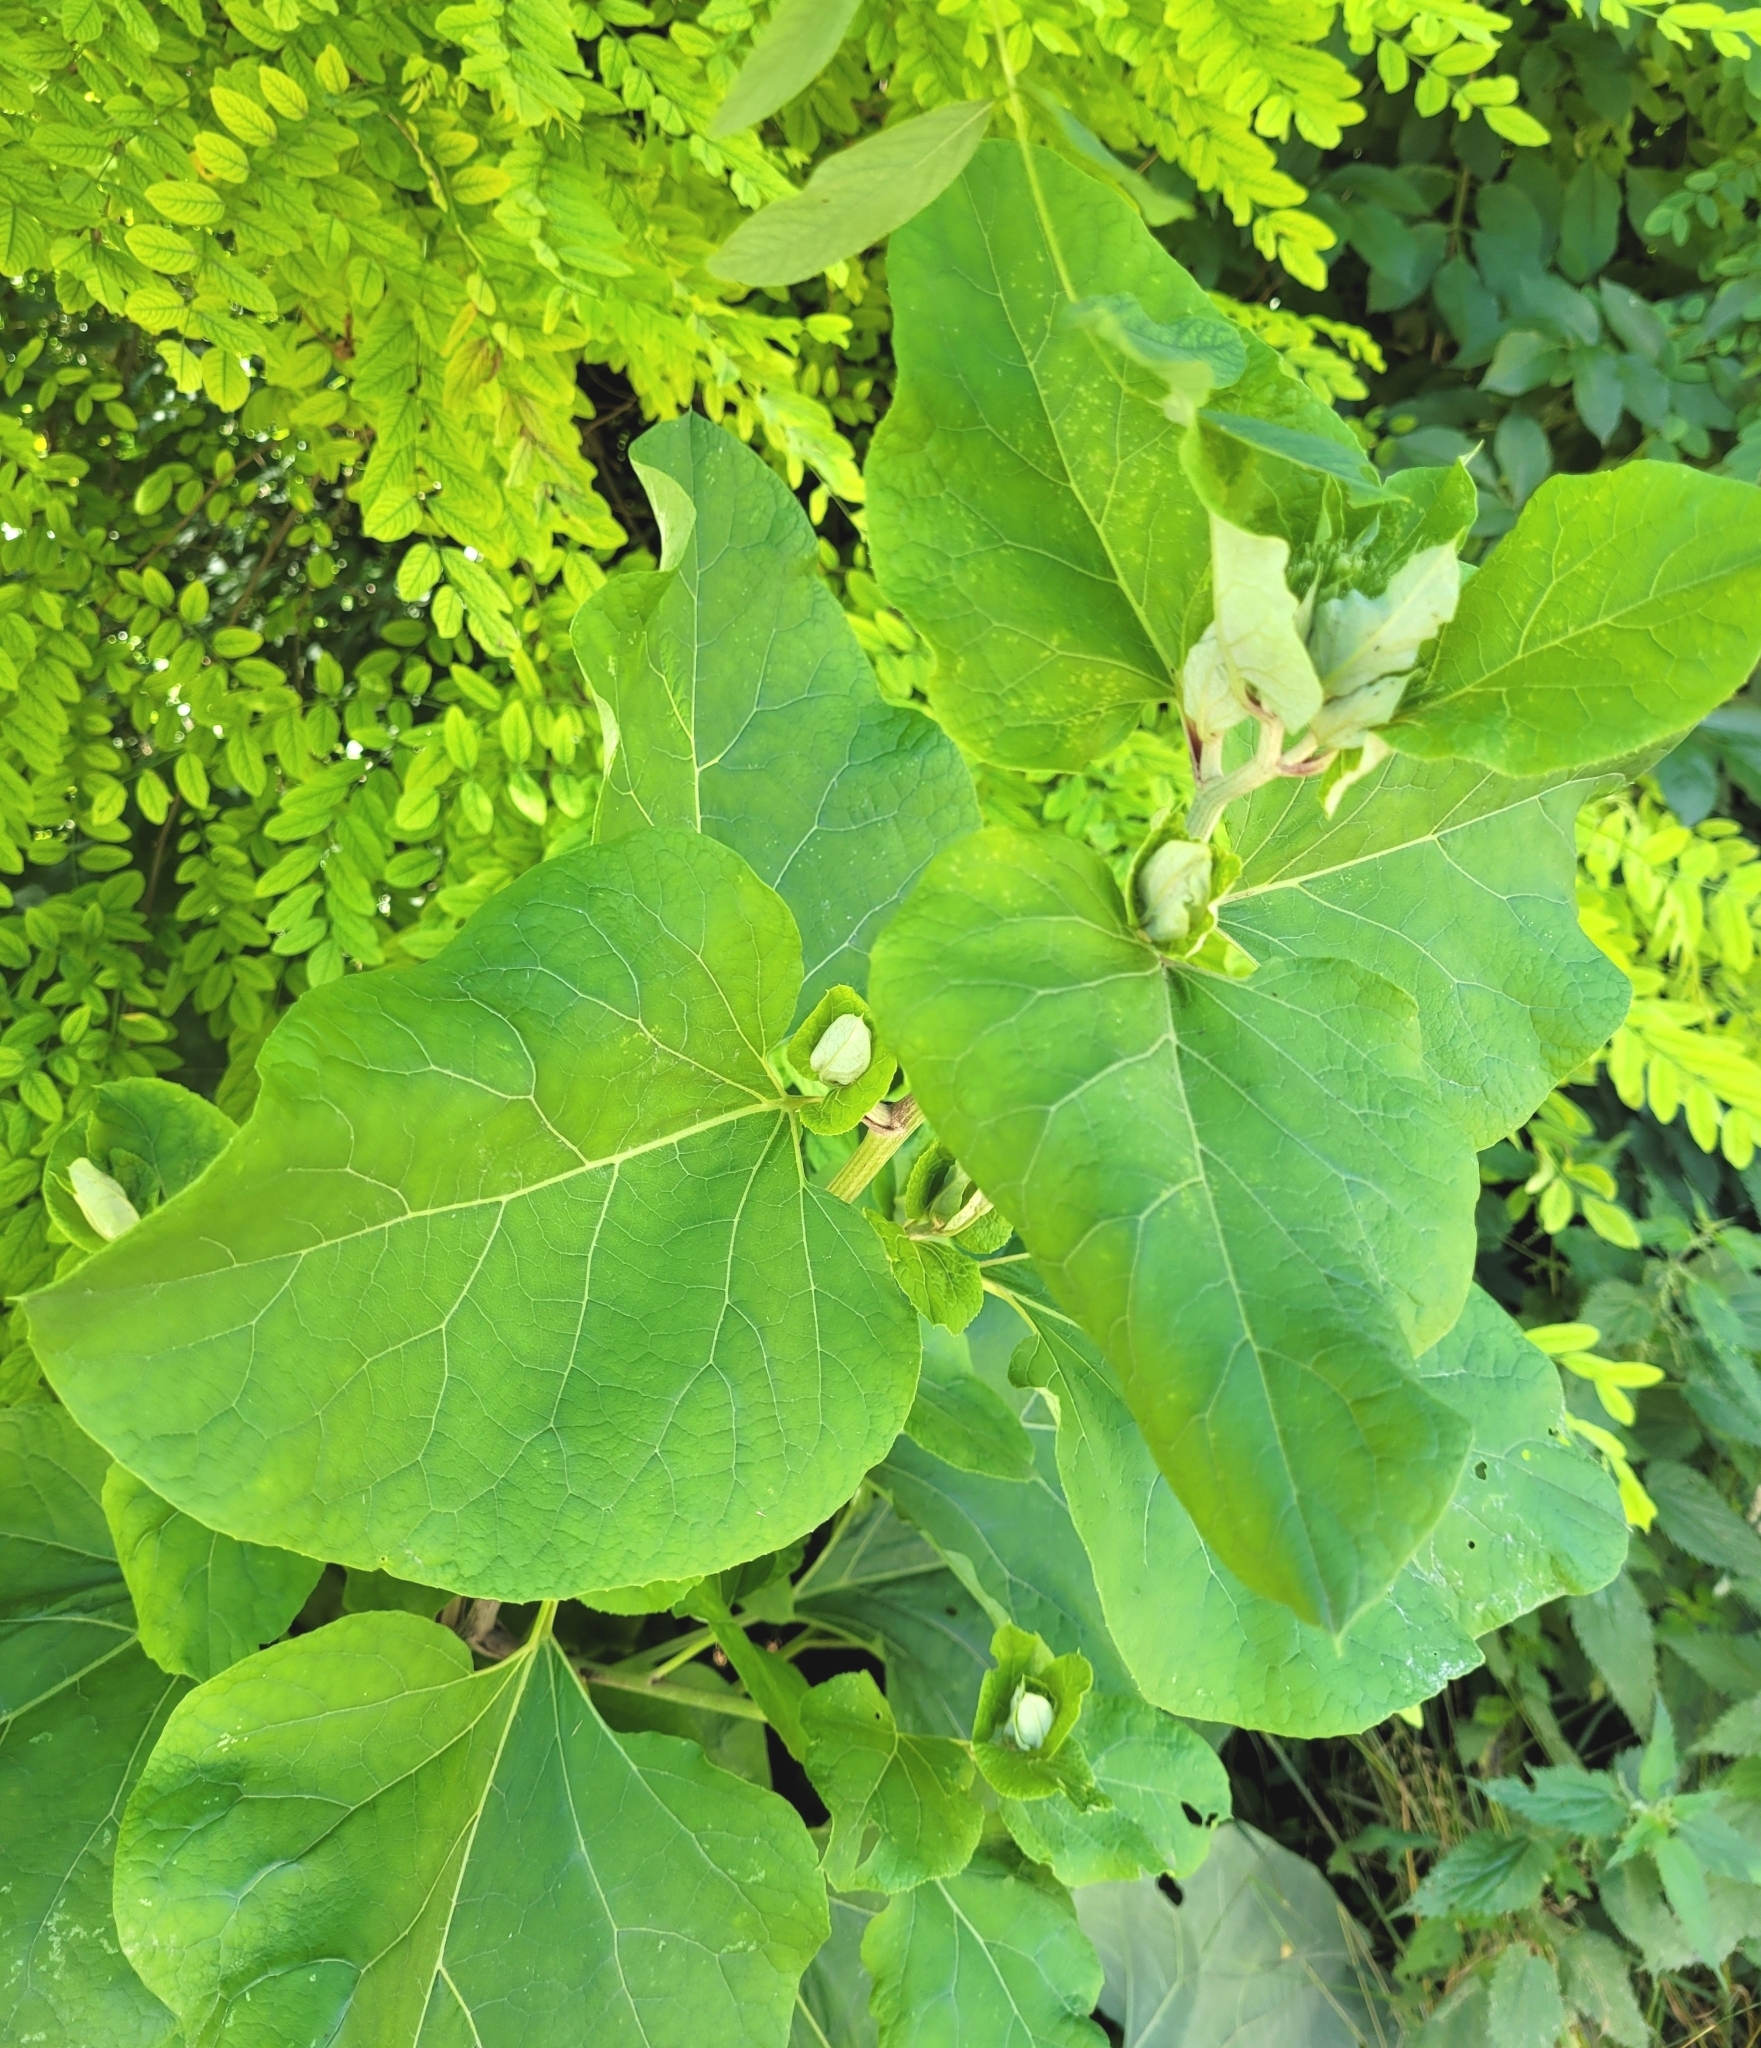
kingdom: Plantae
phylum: Tracheophyta
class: Magnoliopsida
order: Asterales
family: Asteraceae
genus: Arctium
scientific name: Arctium lappa
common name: Greater burdock
